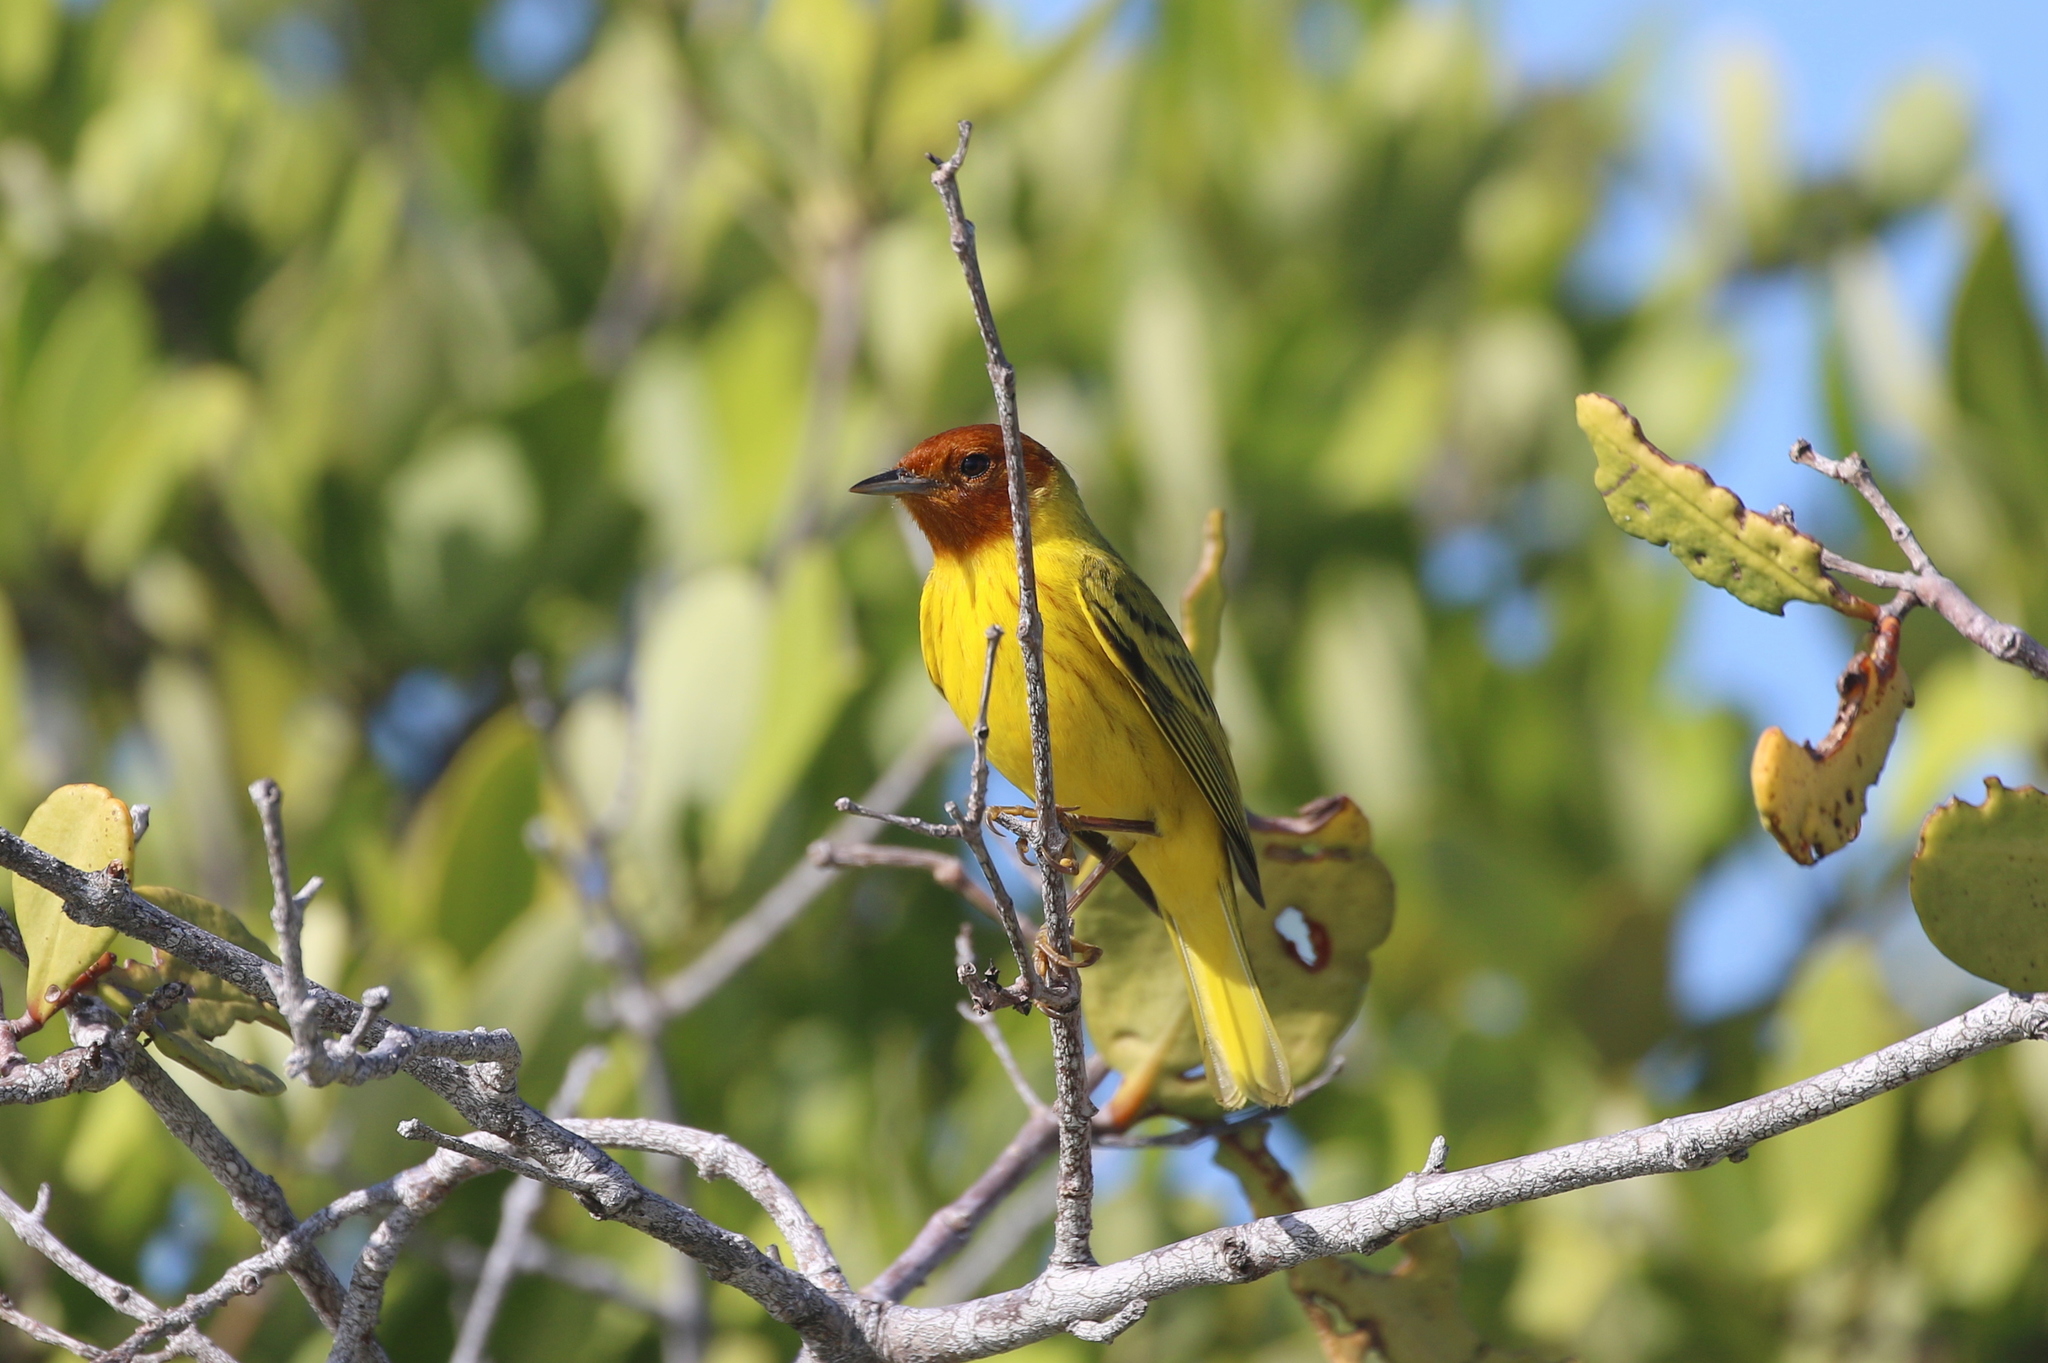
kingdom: Animalia
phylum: Chordata
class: Aves
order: Passeriformes
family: Parulidae
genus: Setophaga
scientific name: Setophaga petechia
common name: Yellow warbler
